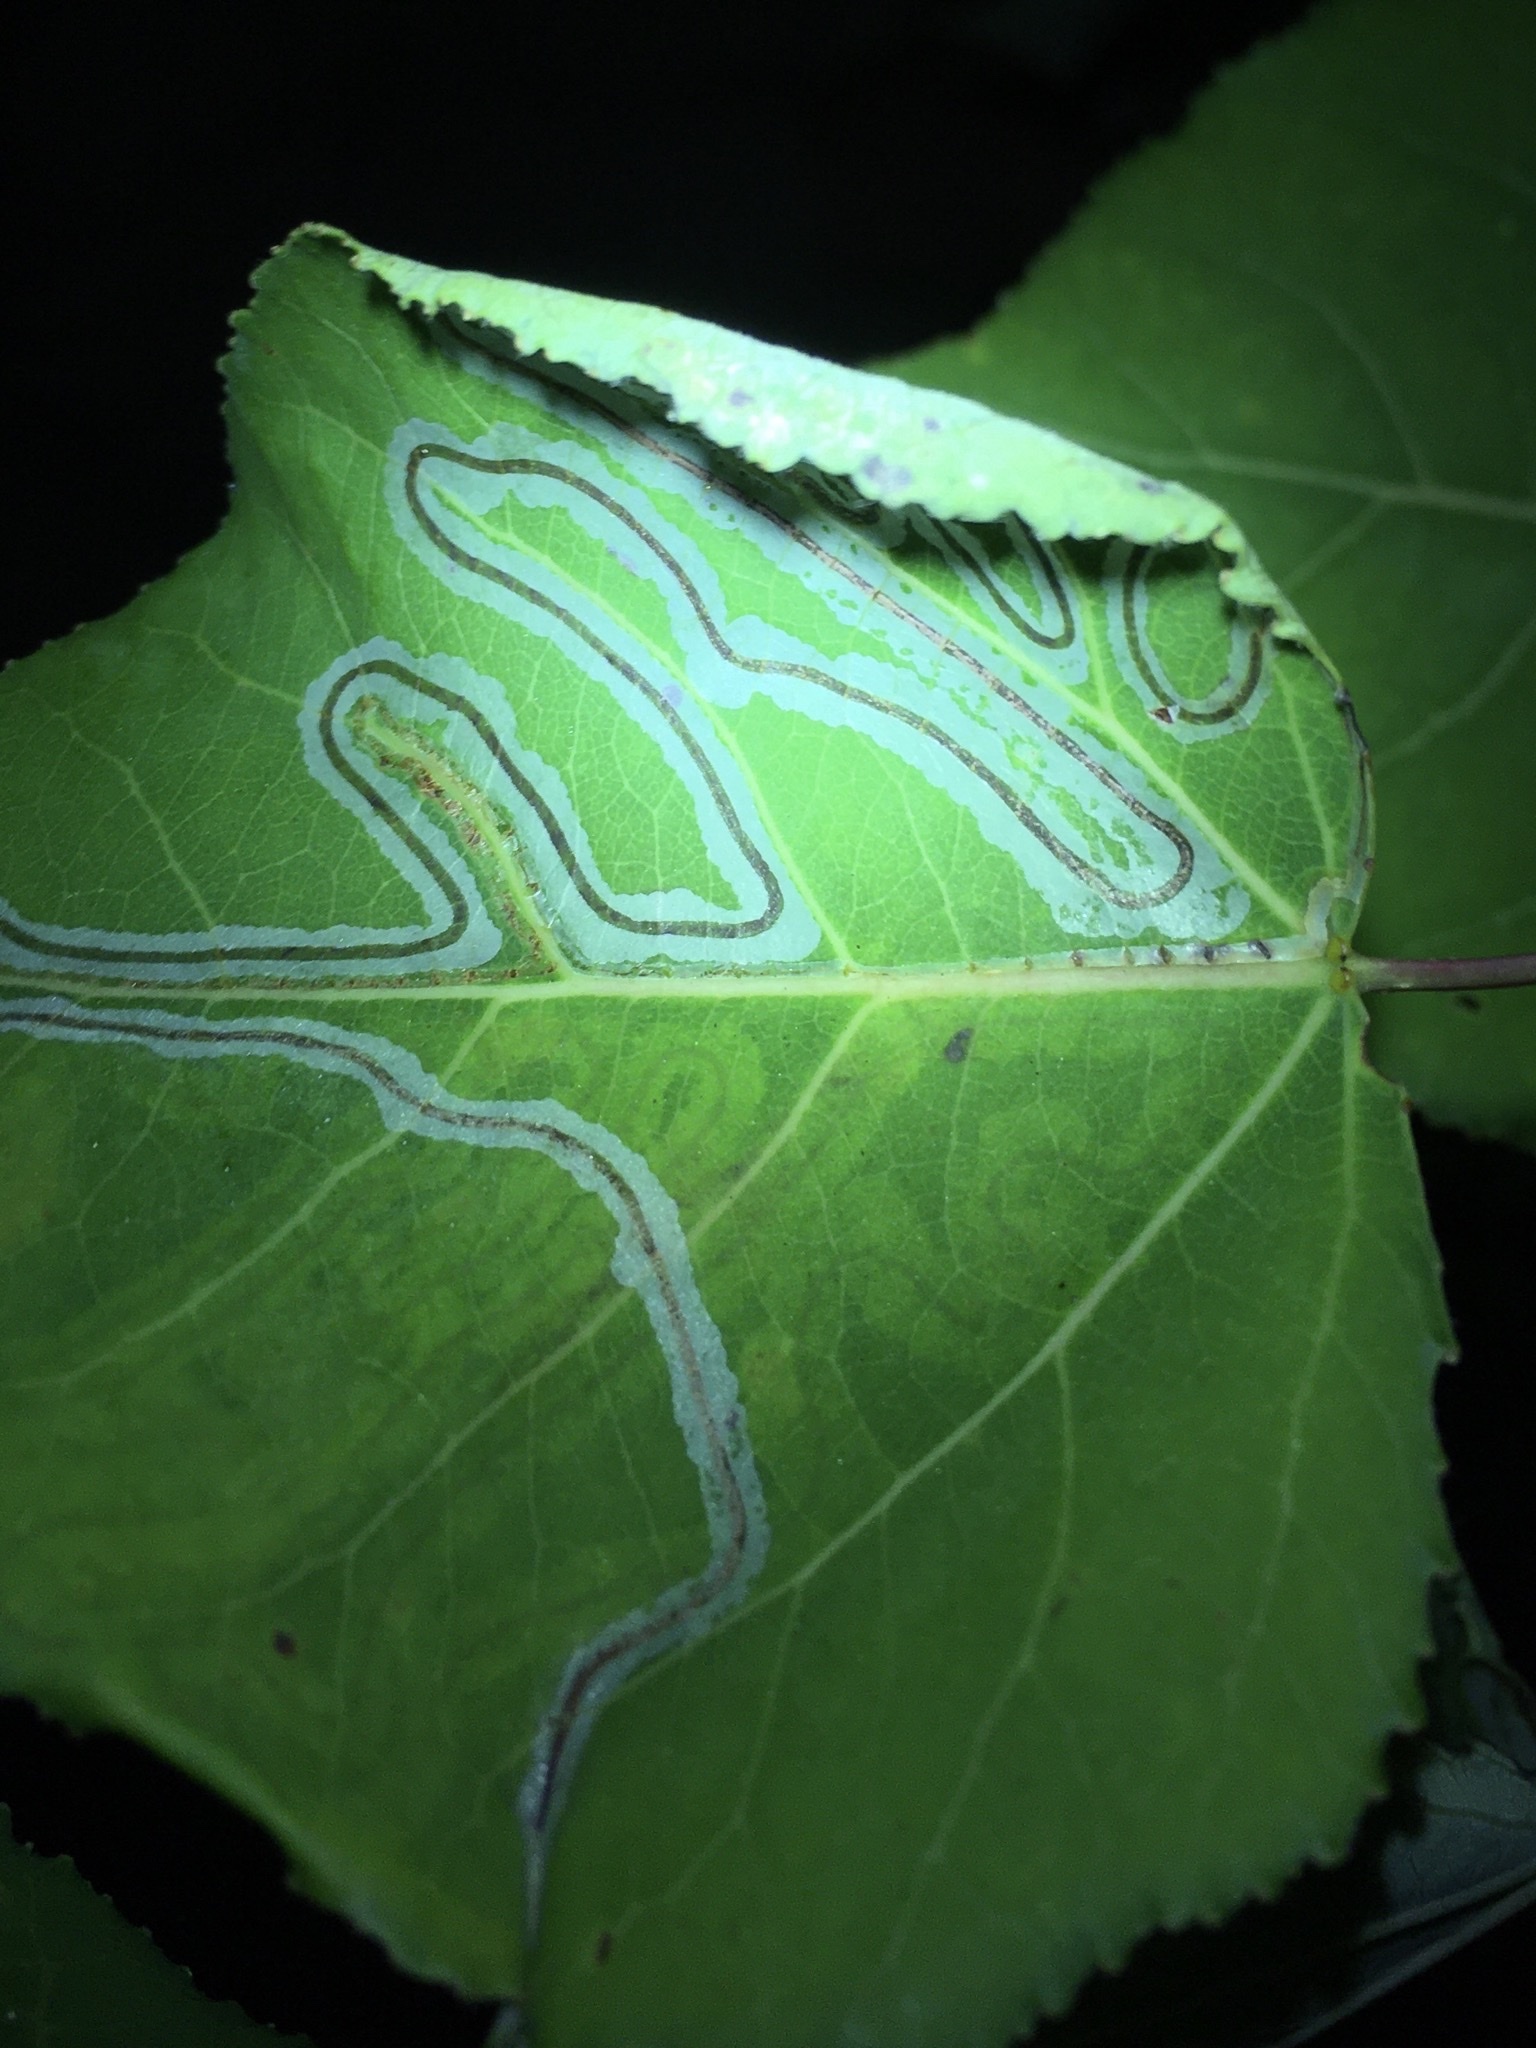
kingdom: Animalia
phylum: Arthropoda
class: Insecta
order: Lepidoptera
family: Gracillariidae
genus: Phyllocnistis
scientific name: Phyllocnistis populiella
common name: Aspen serpentine leafminer moth
